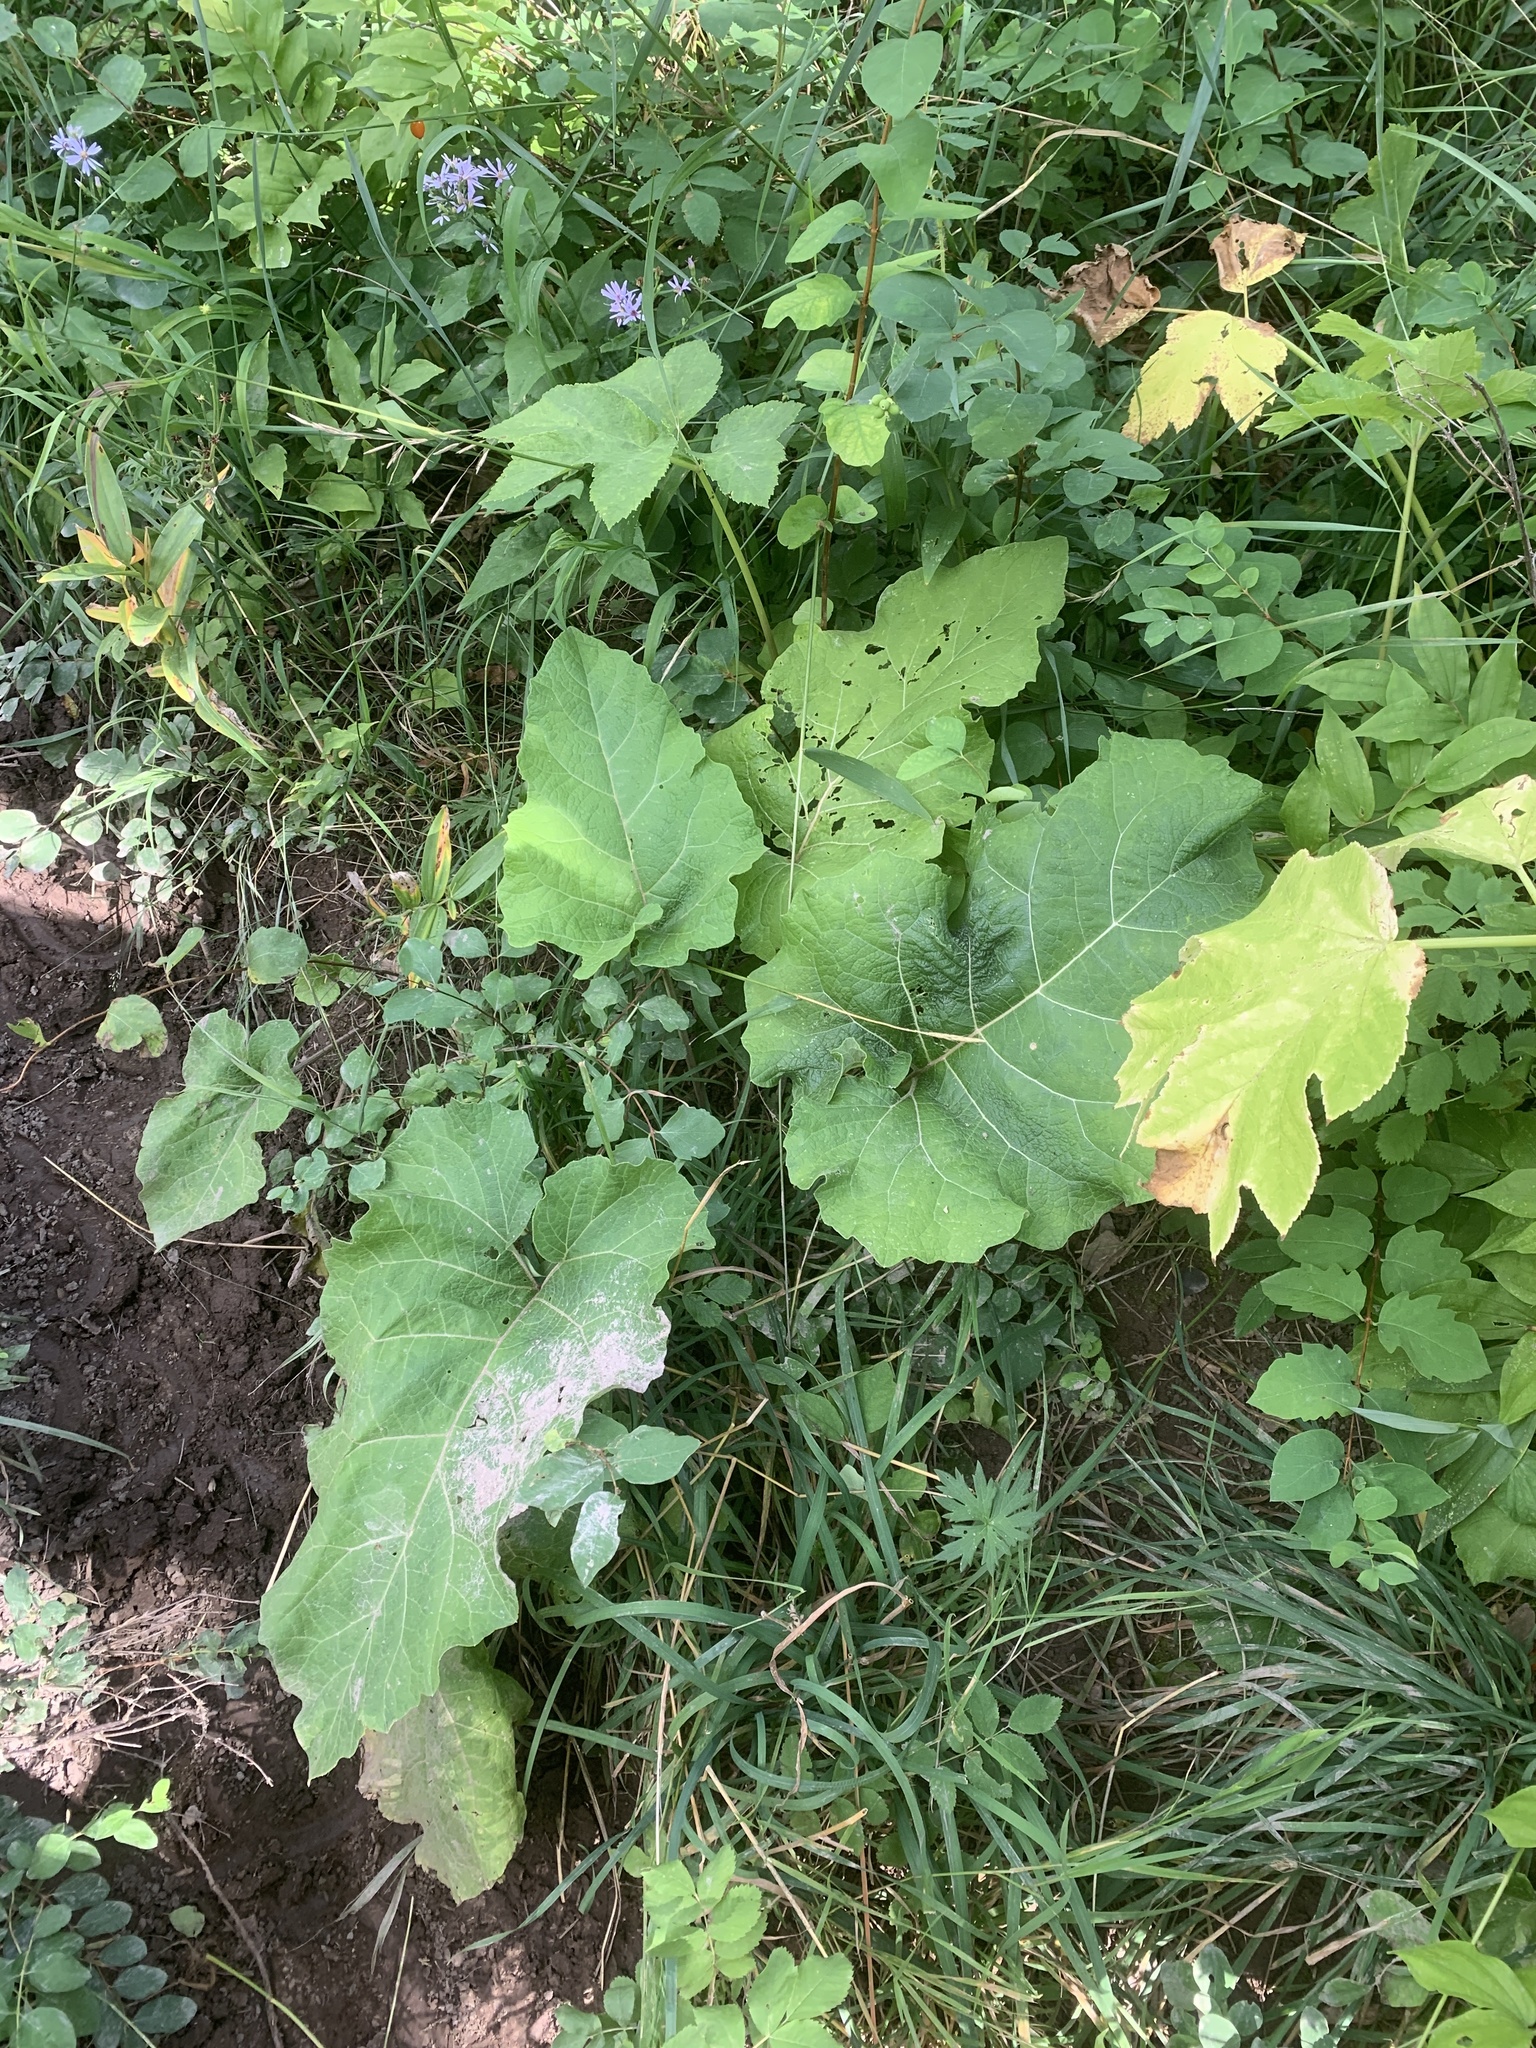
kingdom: Plantae
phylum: Tracheophyta
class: Magnoliopsida
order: Asterales
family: Asteraceae
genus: Arctium
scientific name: Arctium
